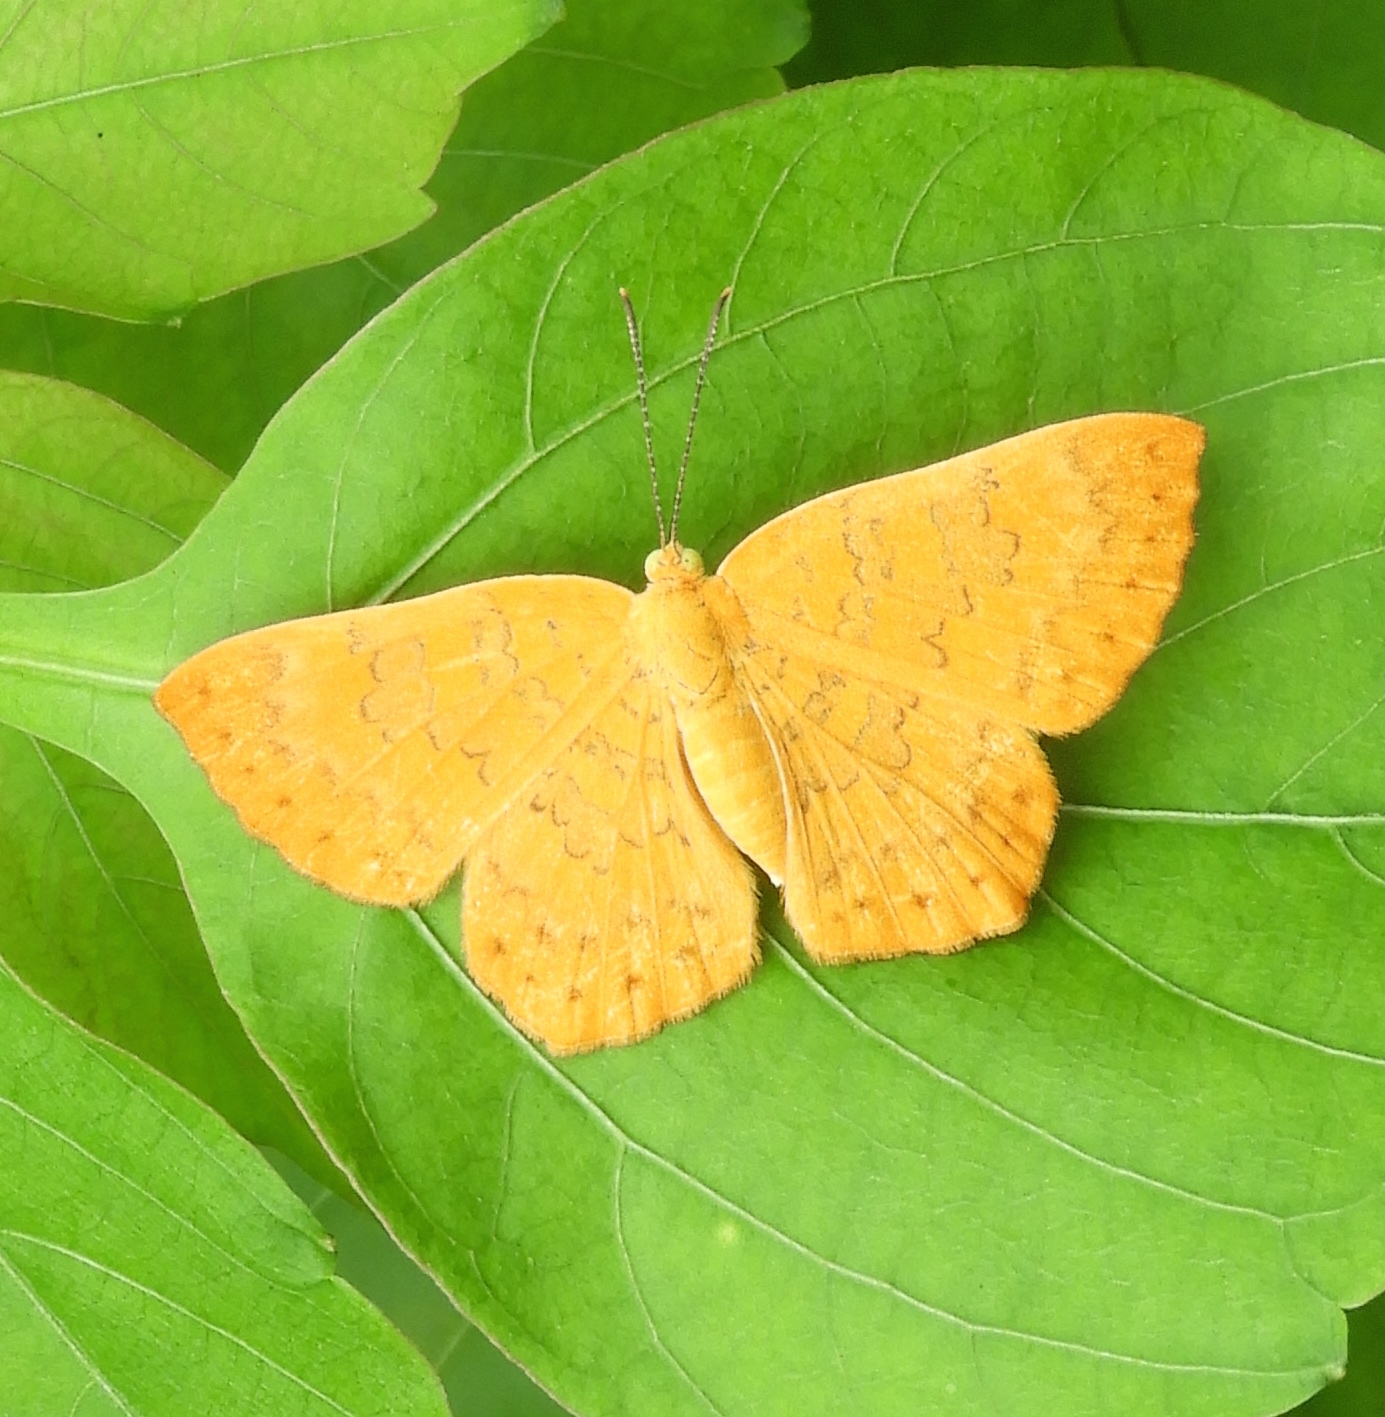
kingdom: Animalia
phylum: Arthropoda
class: Insecta
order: Lepidoptera
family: Lycaenidae
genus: Emesis
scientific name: Emesis
